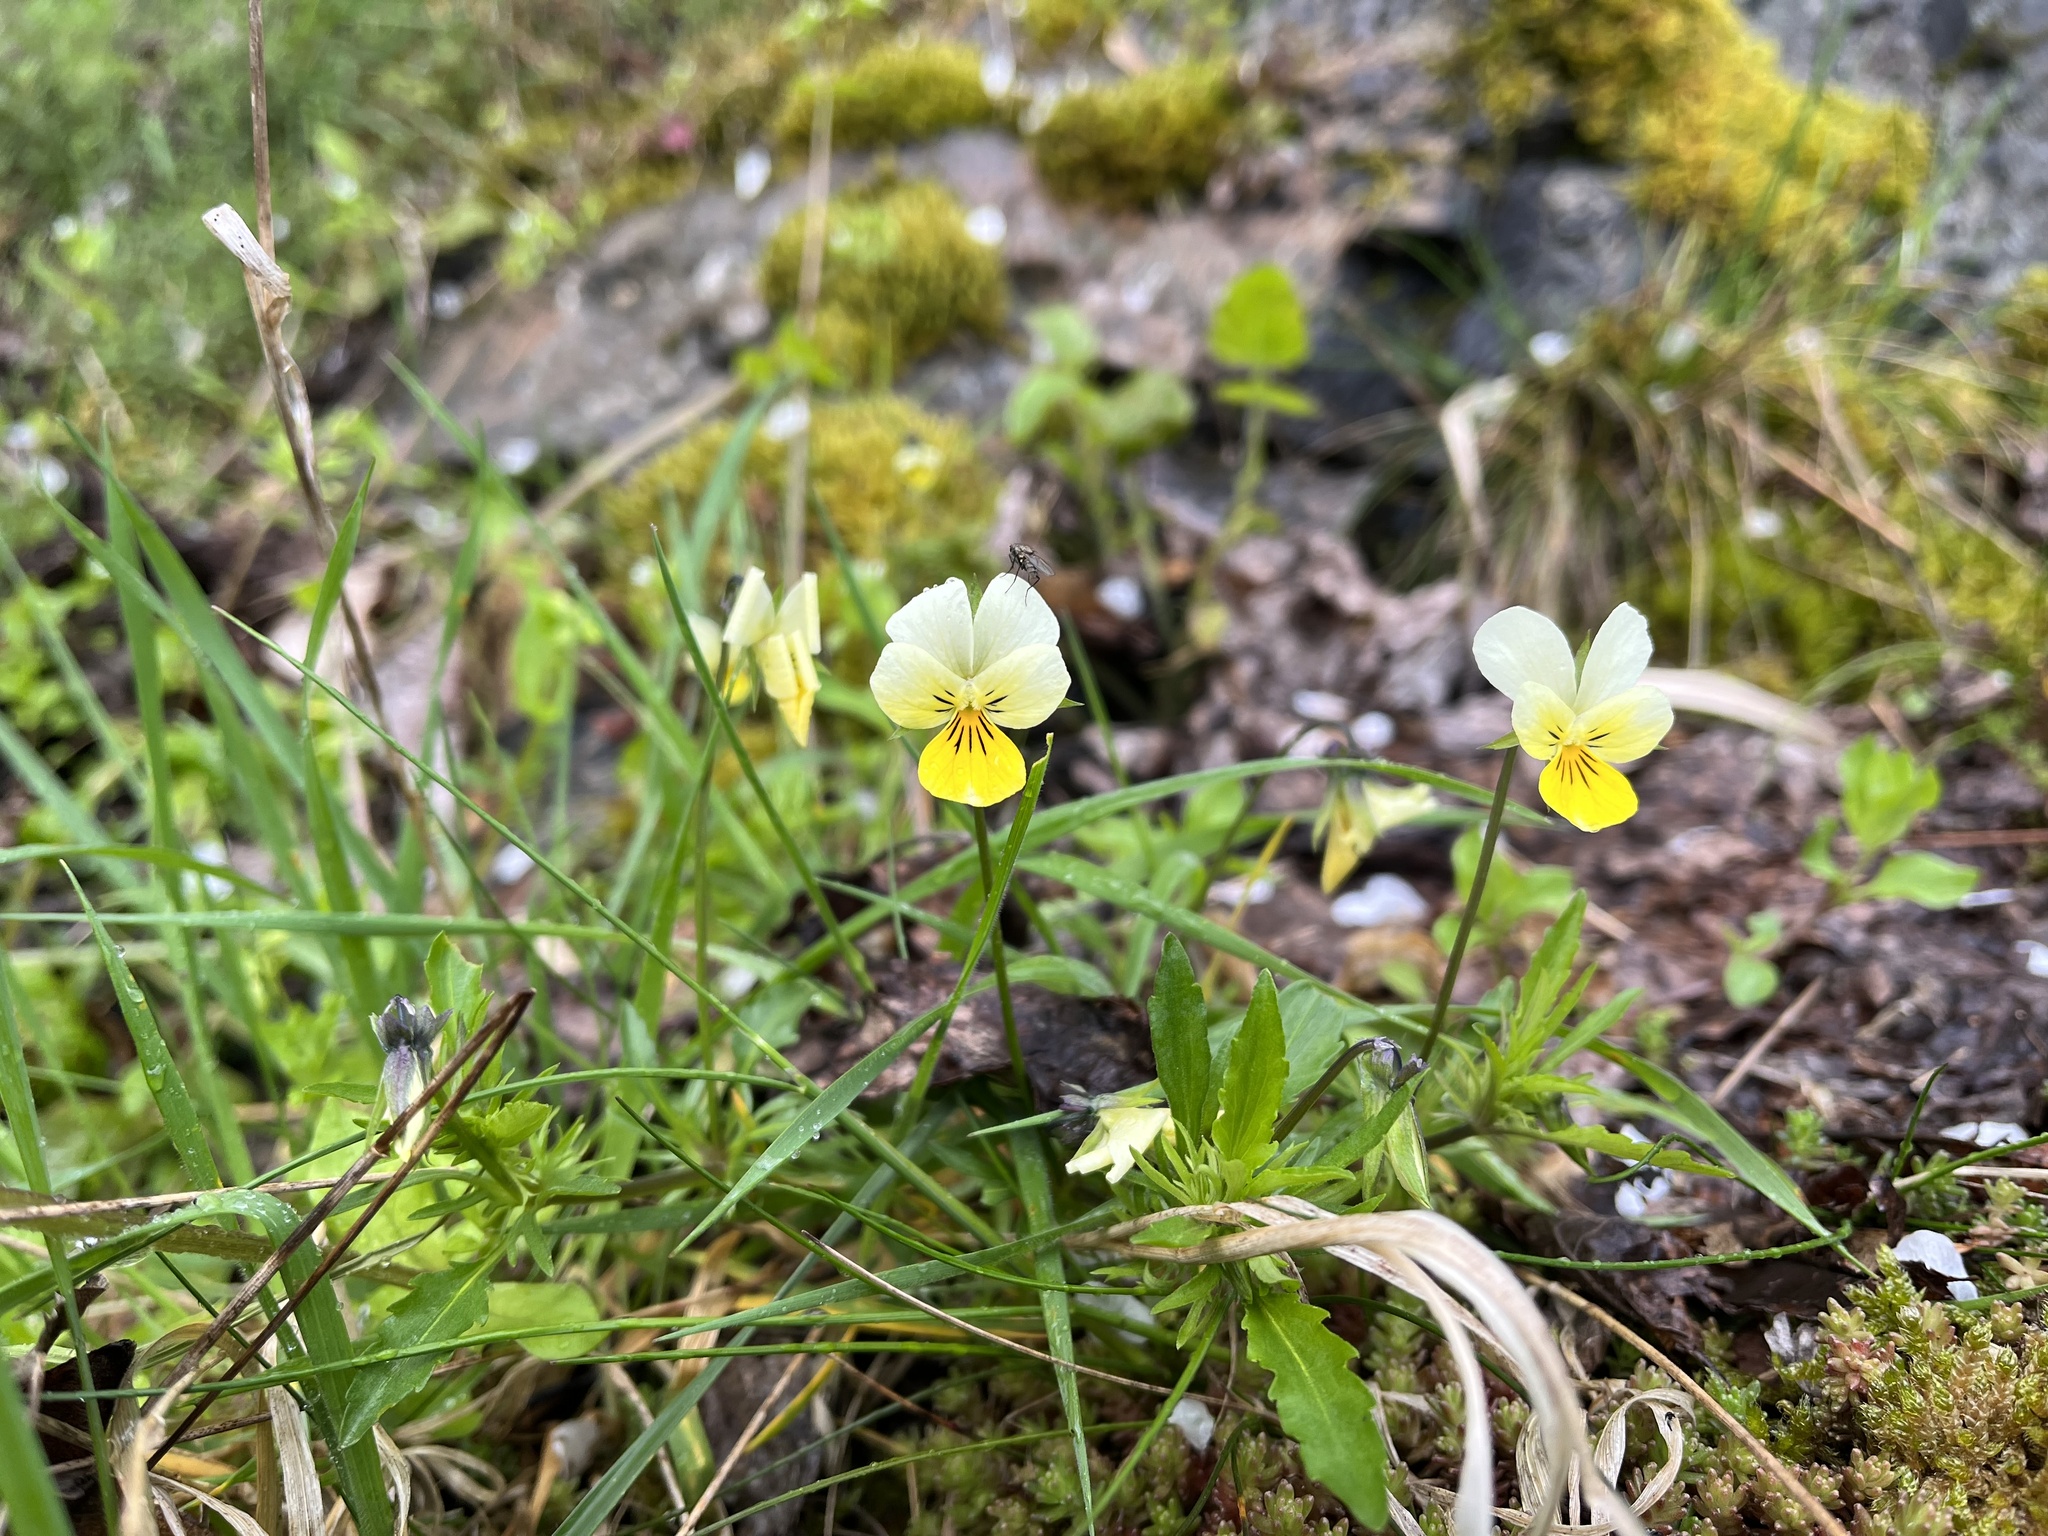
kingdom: Plantae
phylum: Tracheophyta
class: Magnoliopsida
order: Malpighiales
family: Violaceae
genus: Viola
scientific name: Viola arvensis
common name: Field pansy
